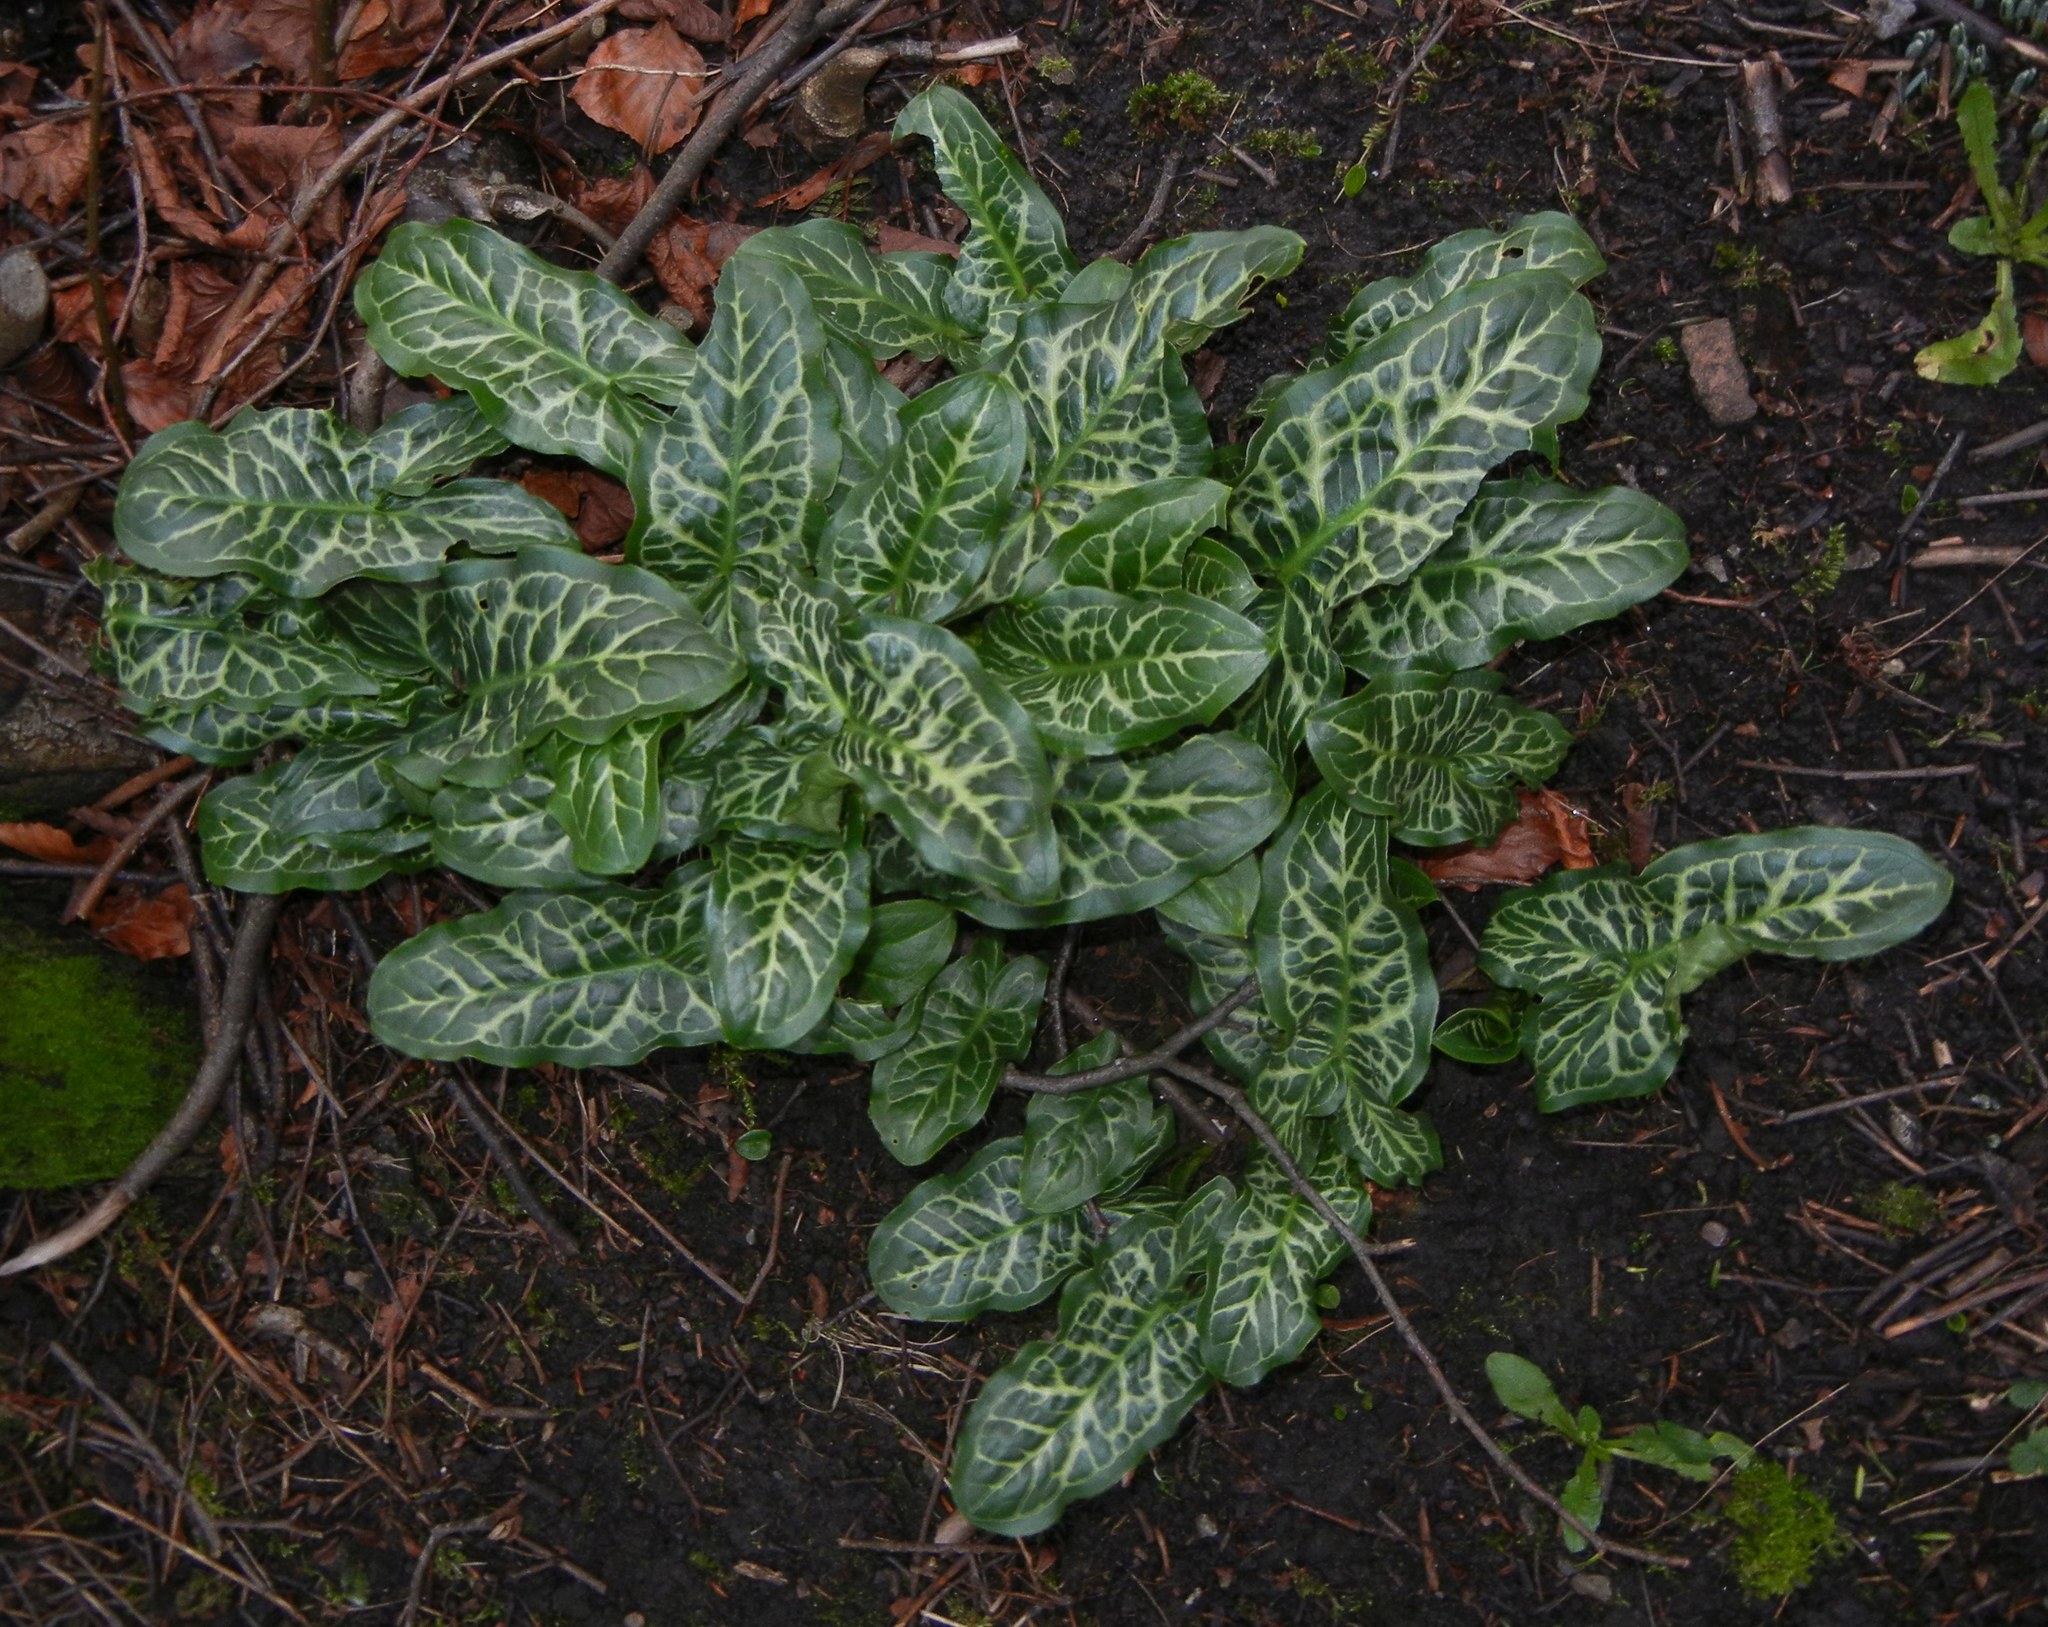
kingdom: Plantae
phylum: Tracheophyta
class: Liliopsida
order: Alismatales
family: Araceae
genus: Arum
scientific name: Arum italicum
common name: Italian lords-and-ladies
